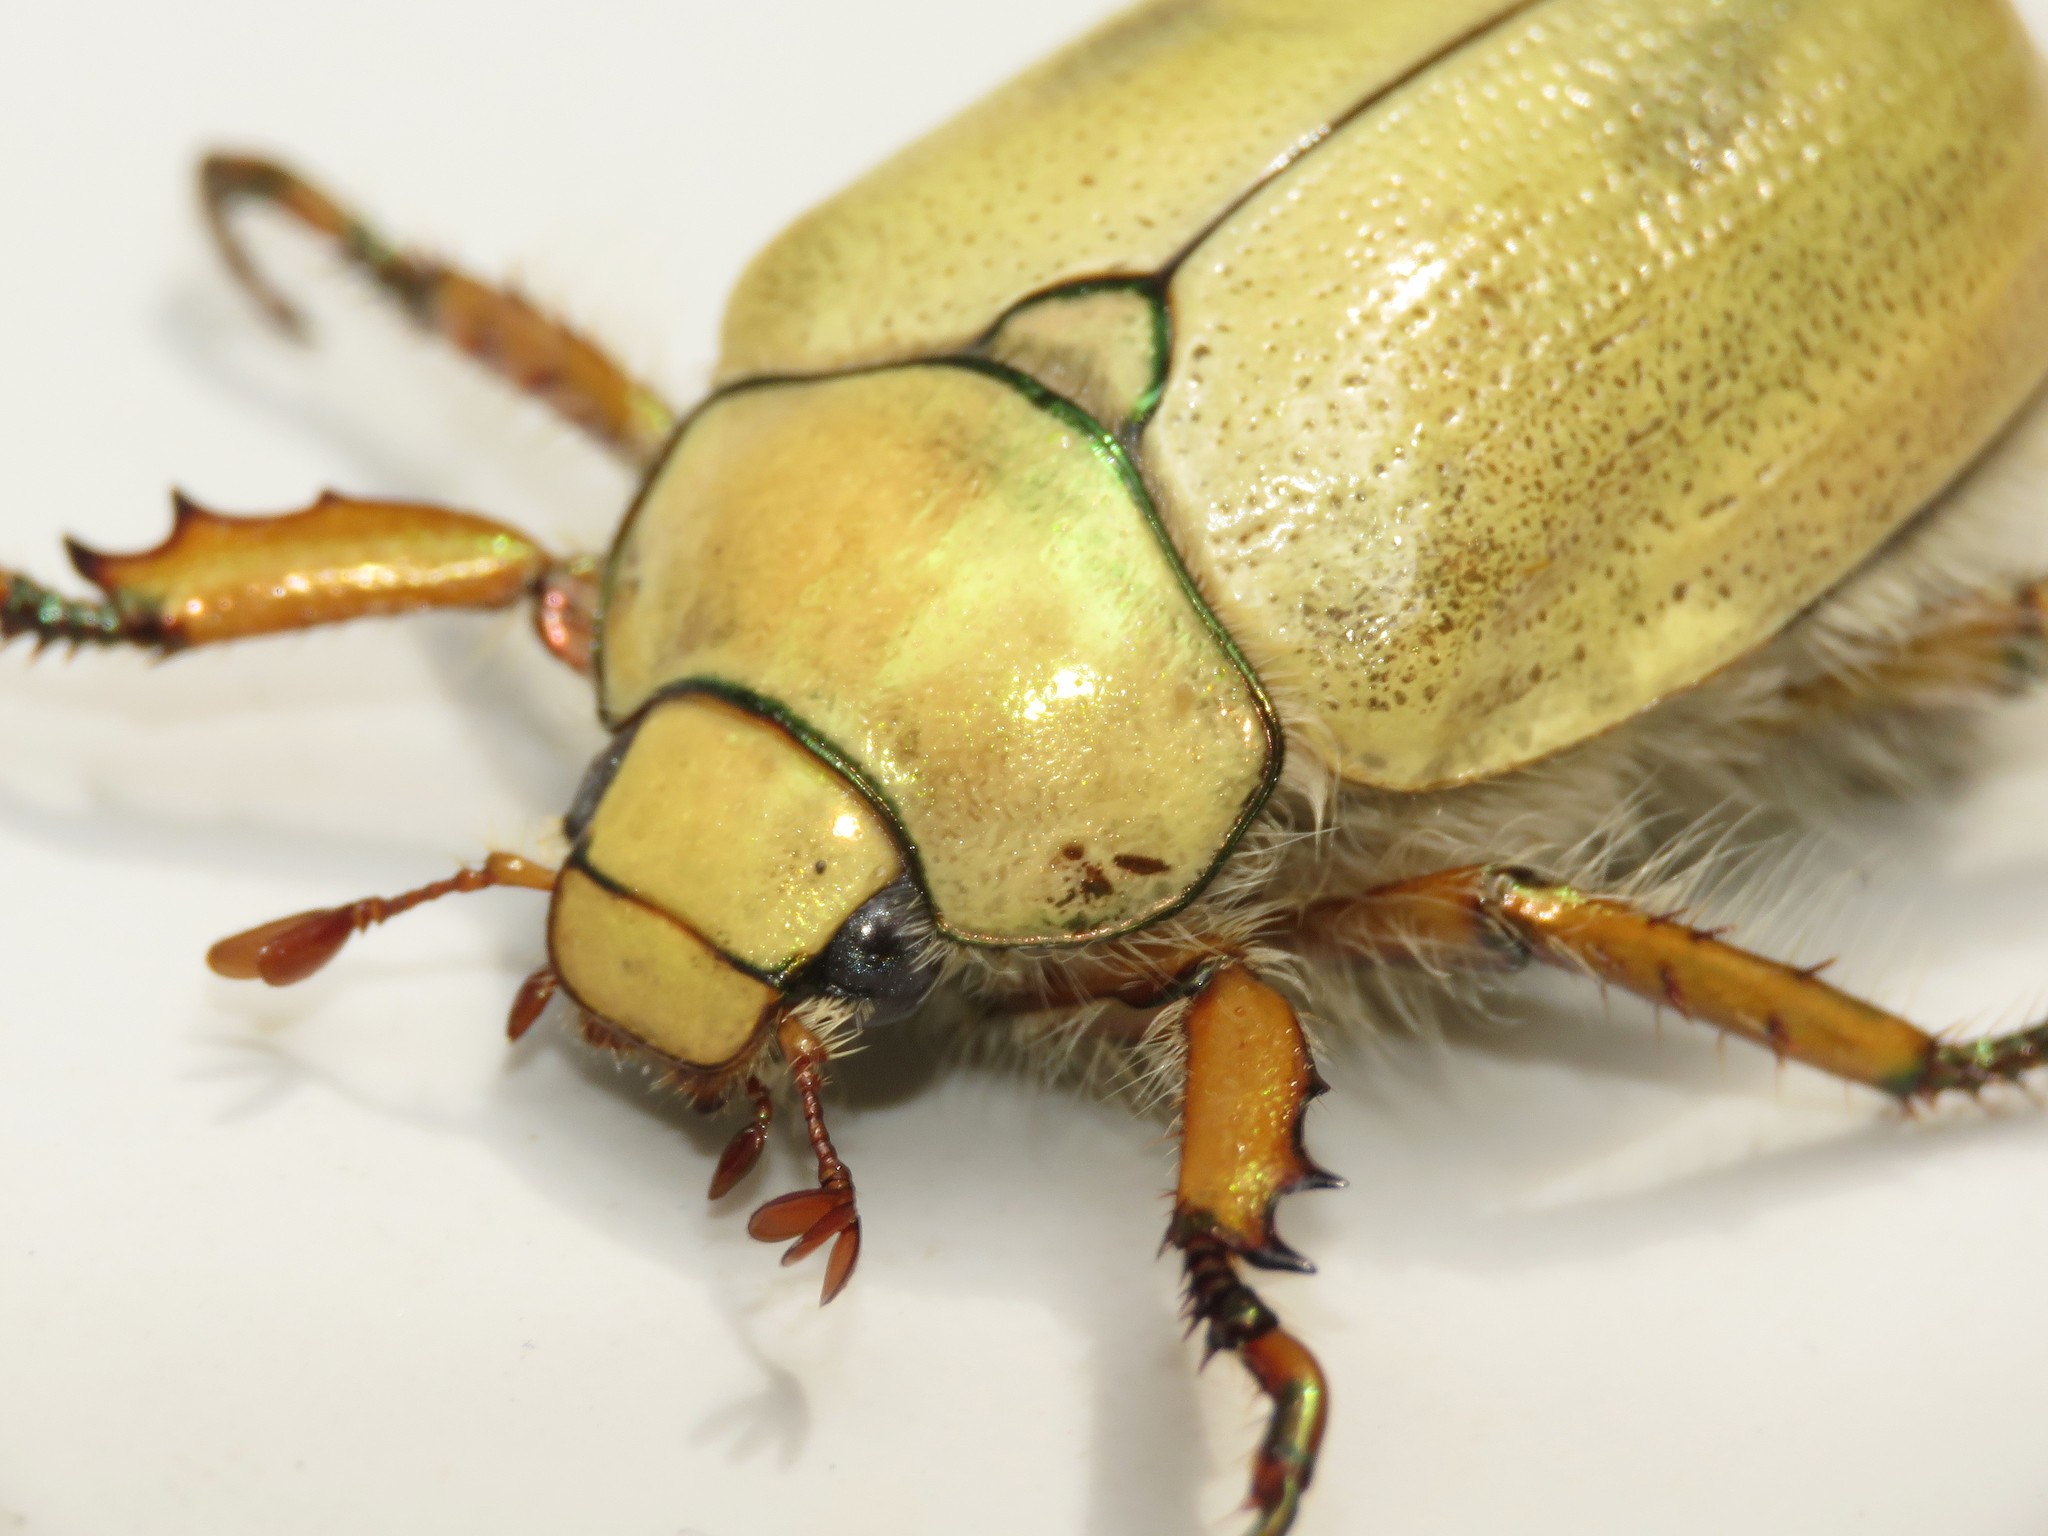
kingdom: Animalia
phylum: Arthropoda
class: Insecta
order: Coleoptera
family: Scarabaeidae
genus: Cotalpa
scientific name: Cotalpa lanigera
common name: Goldsmith beetle
